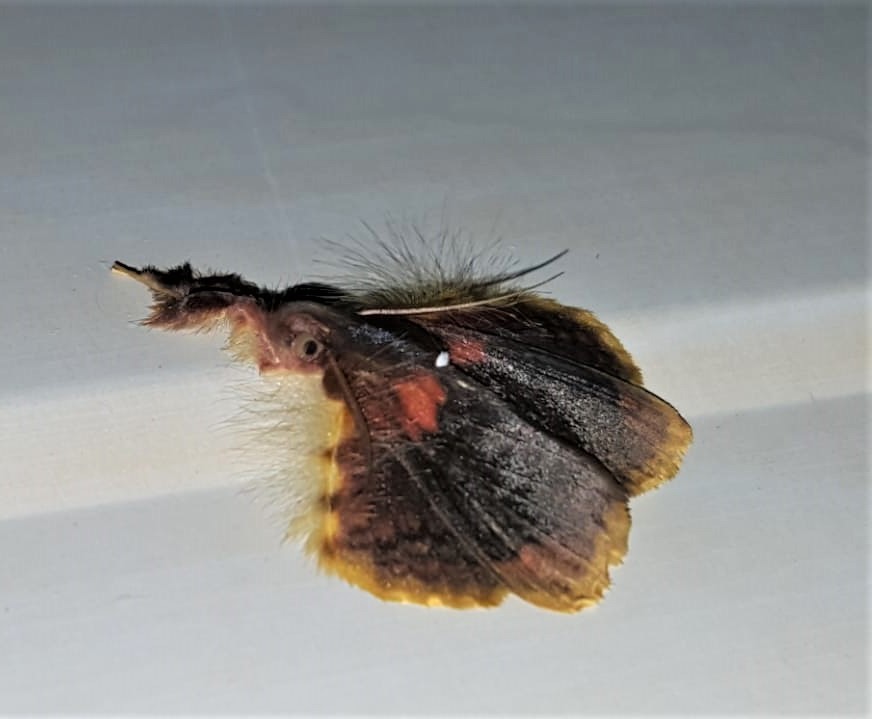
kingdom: Animalia
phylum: Arthropoda
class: Insecta
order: Lepidoptera
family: Erebidae
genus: Sosxetra
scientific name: Sosxetra grata
